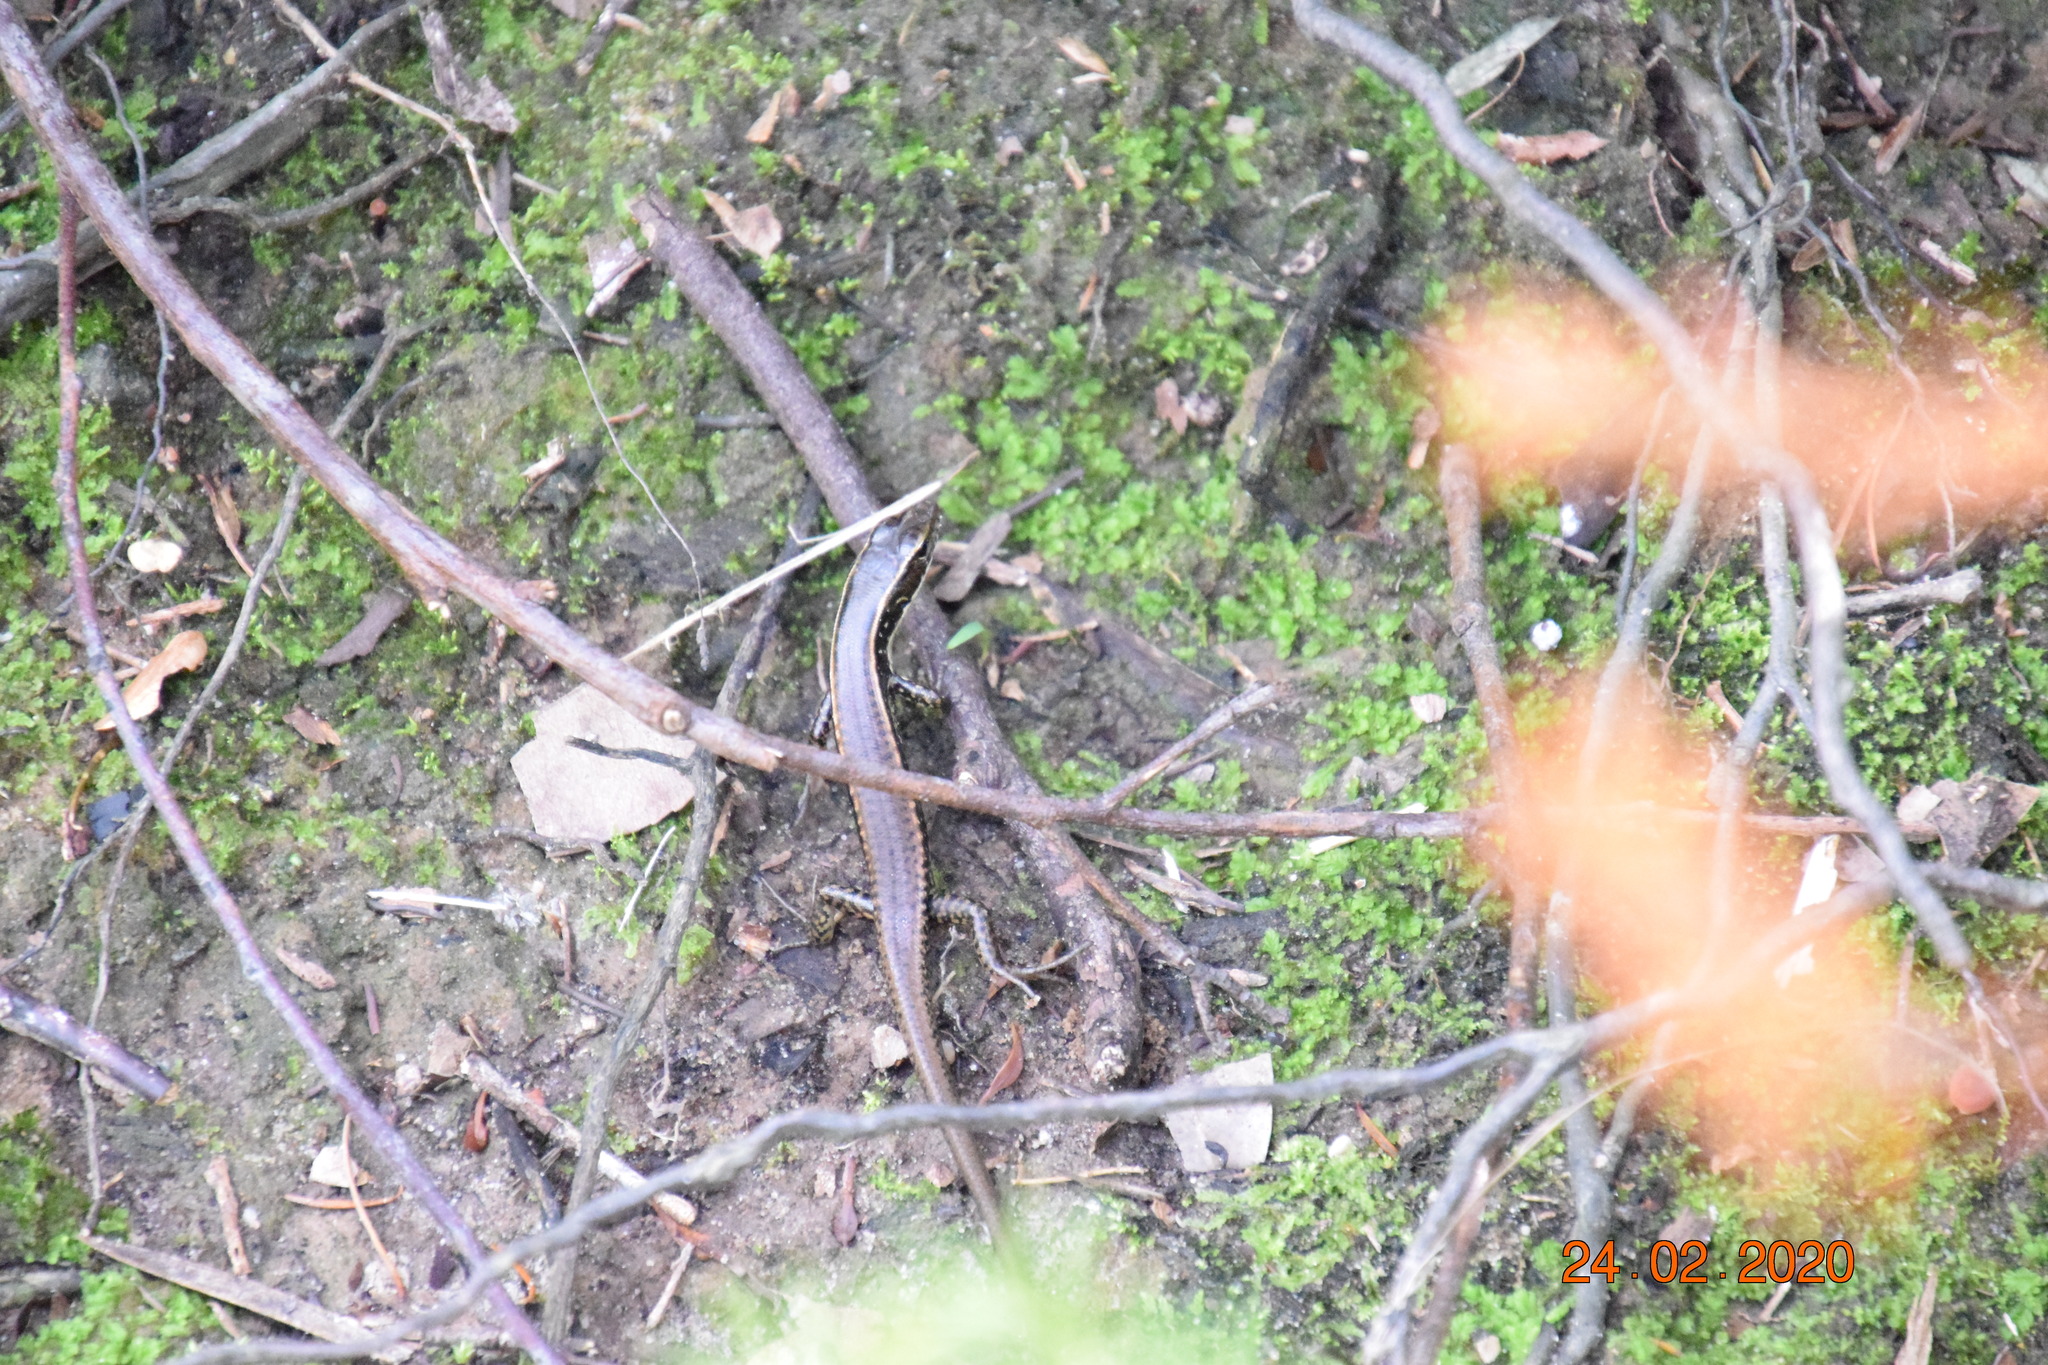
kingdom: Animalia
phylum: Chordata
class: Squamata
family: Scincidae
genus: Eulamprus
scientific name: Eulamprus quoyii
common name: Eastern water skink
